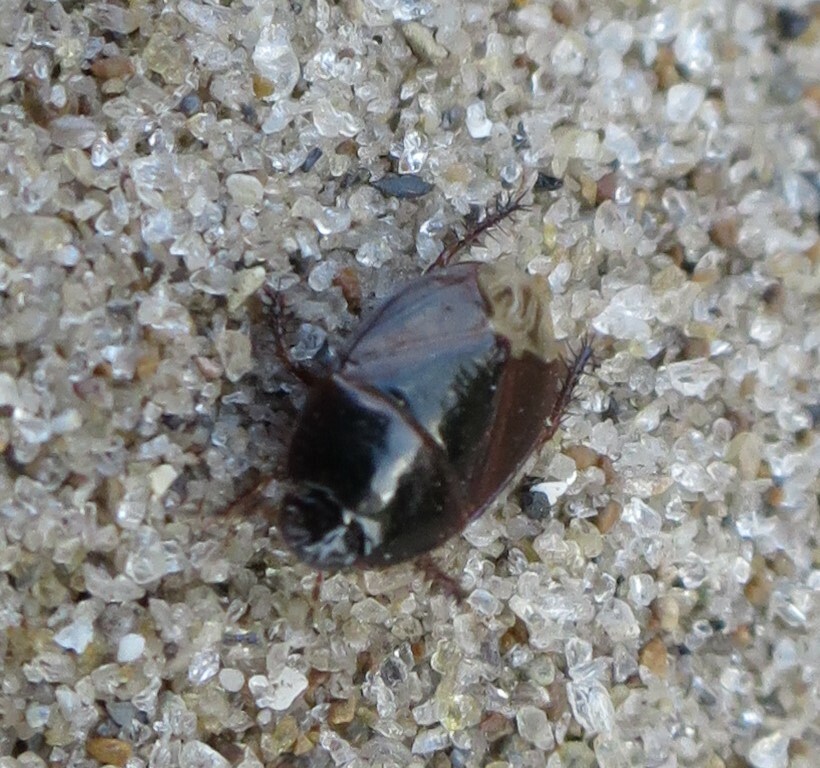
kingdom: Animalia
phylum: Arthropoda
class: Insecta
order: Hemiptera
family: Cydnidae
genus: Macroscytus
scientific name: Macroscytus australis
